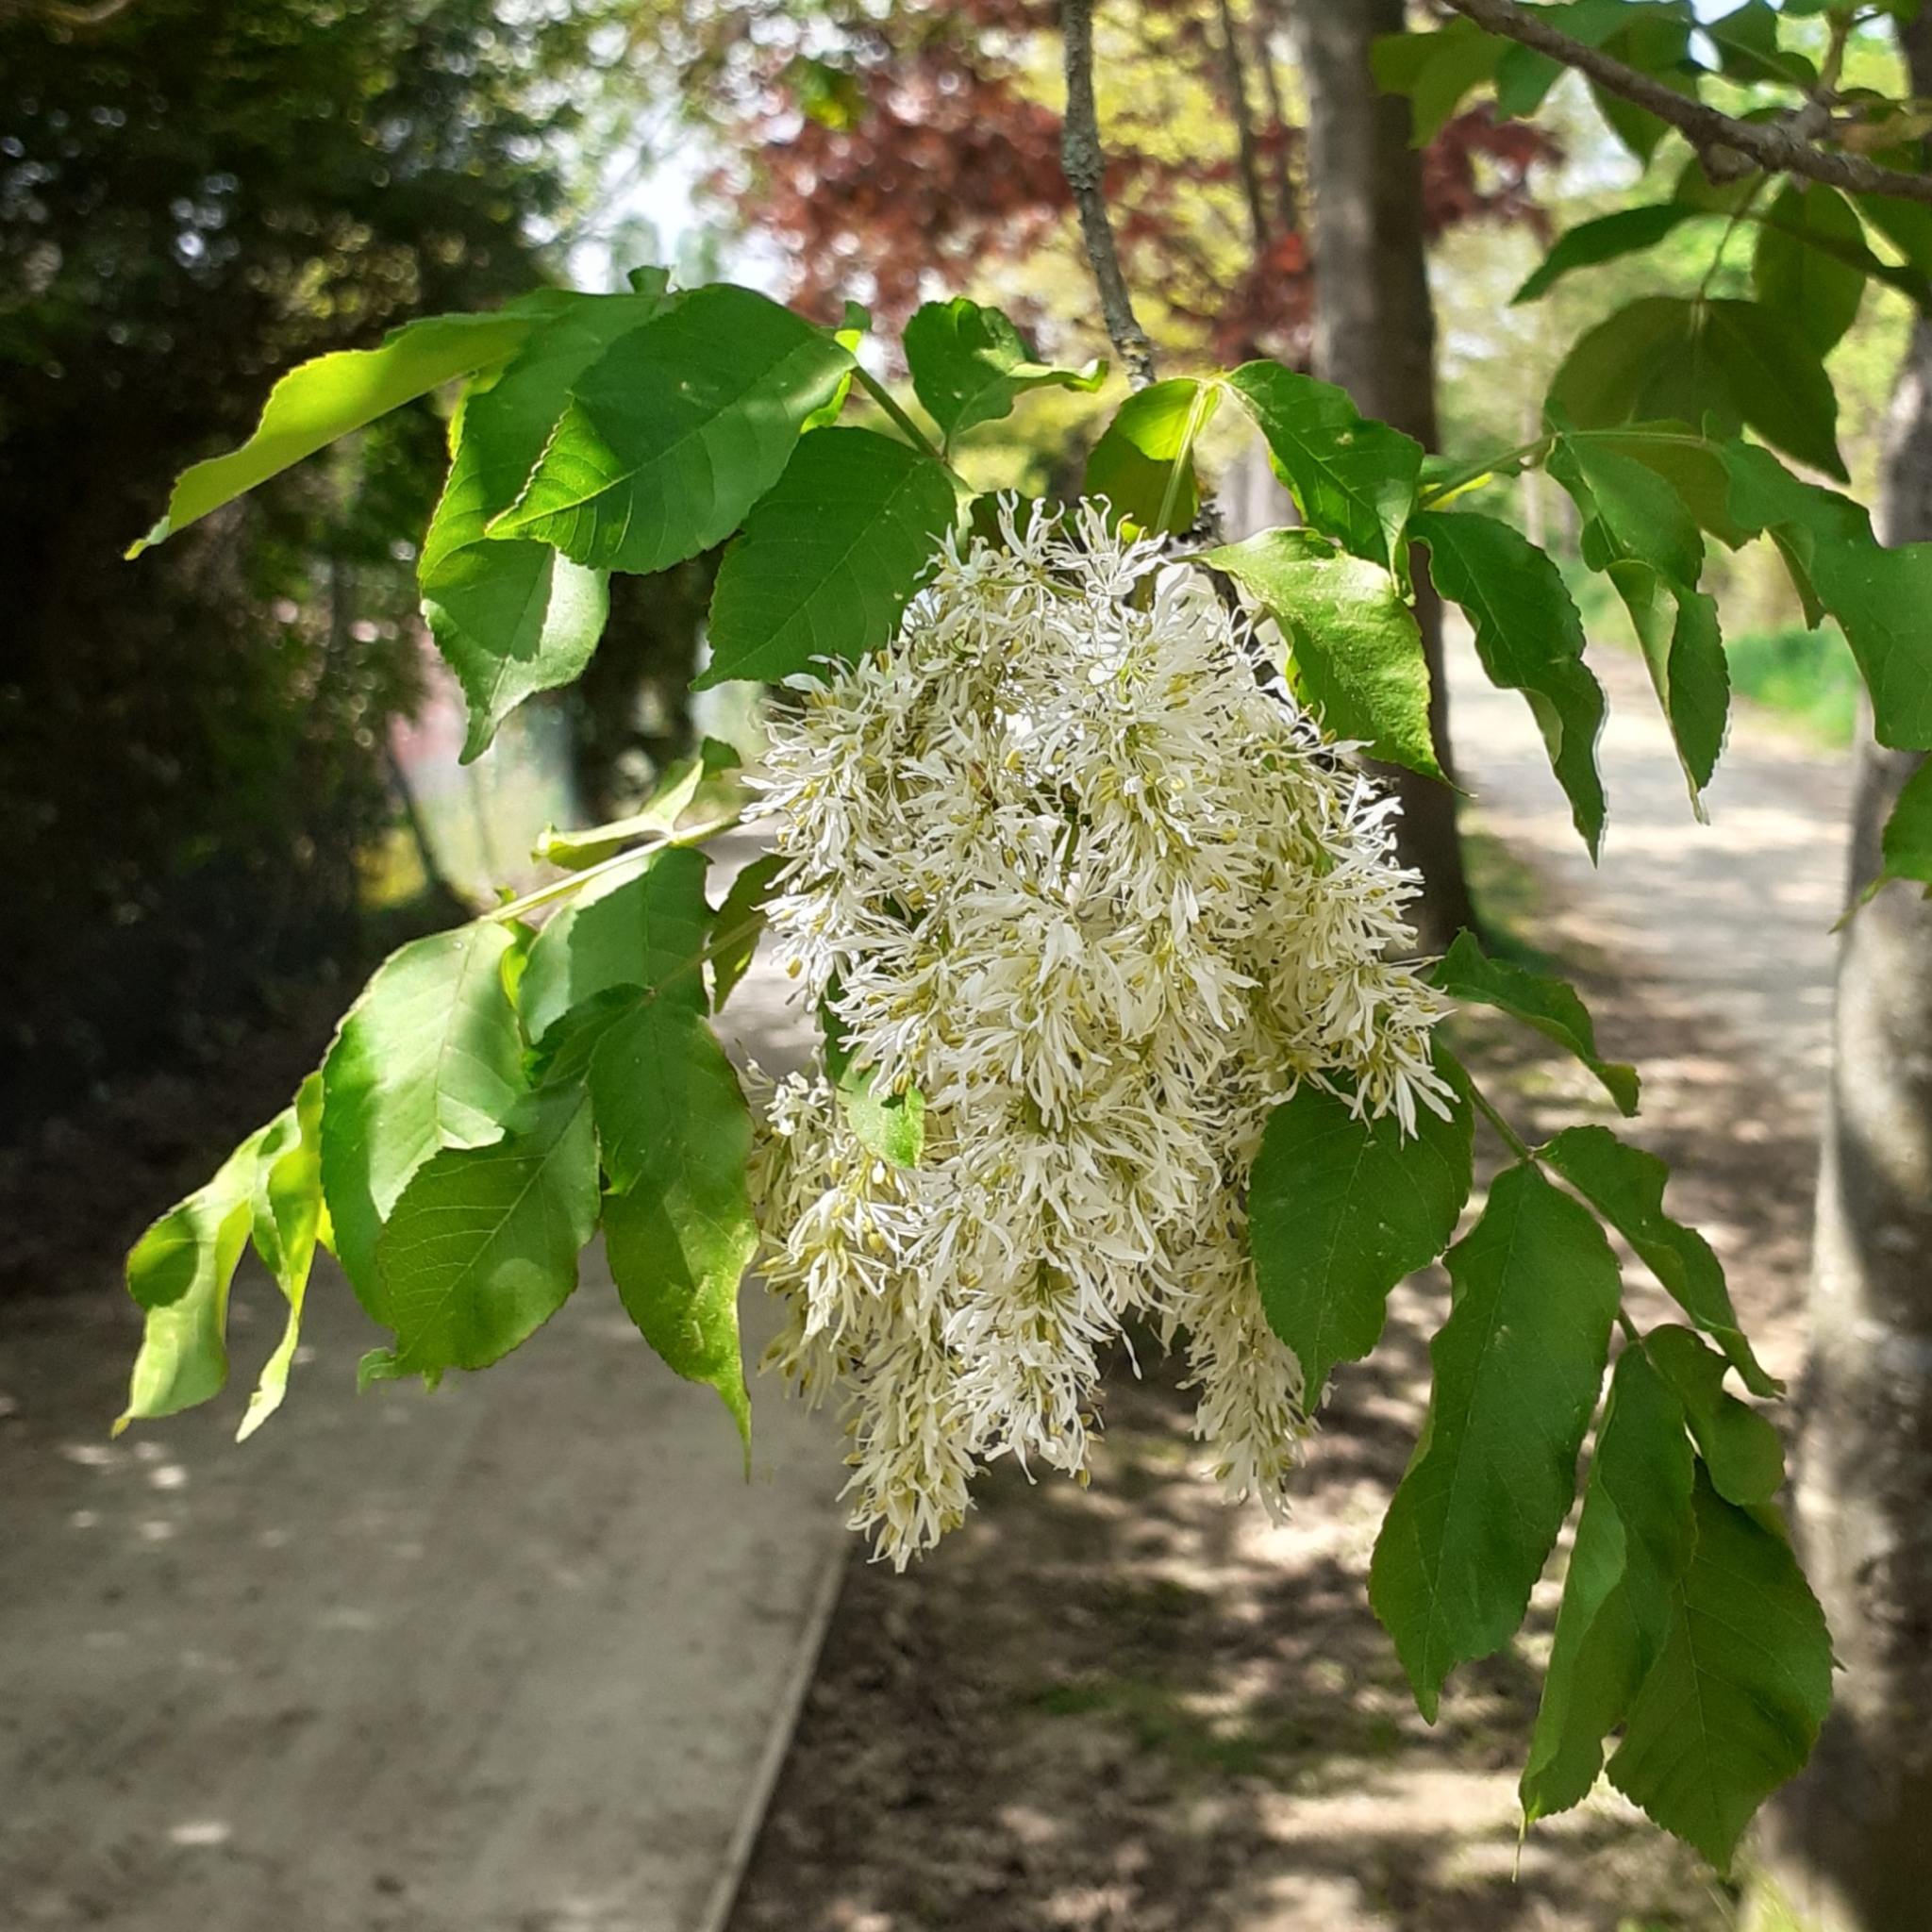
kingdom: Plantae
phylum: Tracheophyta
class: Magnoliopsida
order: Lamiales
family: Oleaceae
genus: Fraxinus
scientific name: Fraxinus ornus
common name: Manna ash
